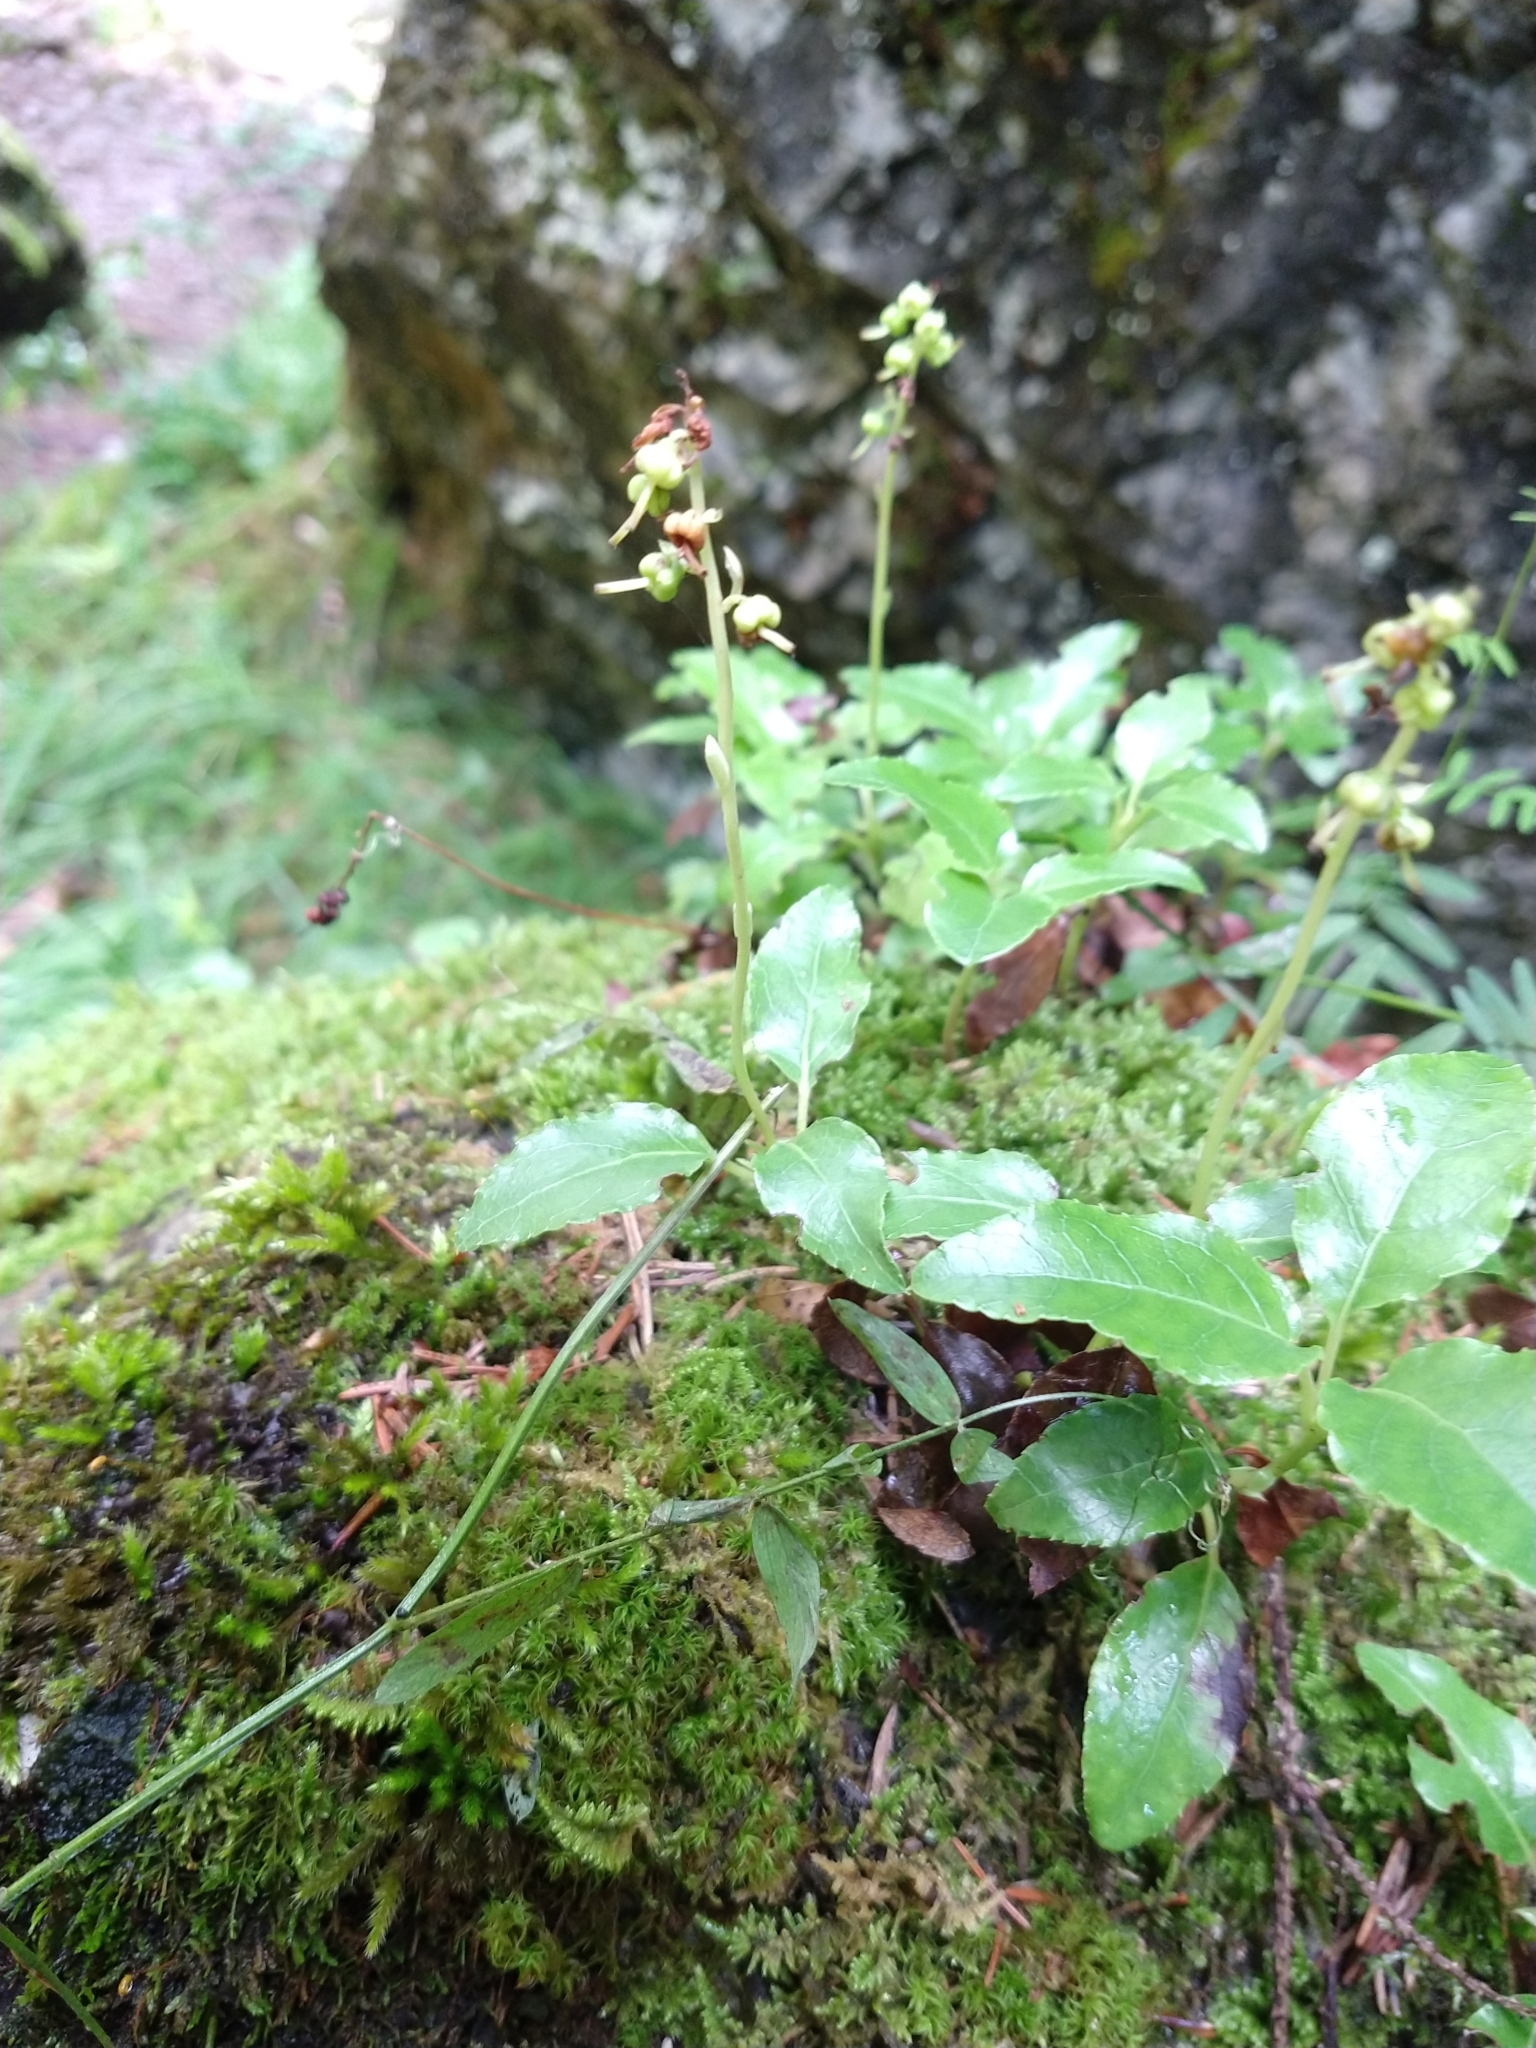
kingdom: Plantae
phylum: Tracheophyta
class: Magnoliopsida
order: Ericales
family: Ericaceae
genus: Orthilia
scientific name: Orthilia secunda
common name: One-sided orthilia
